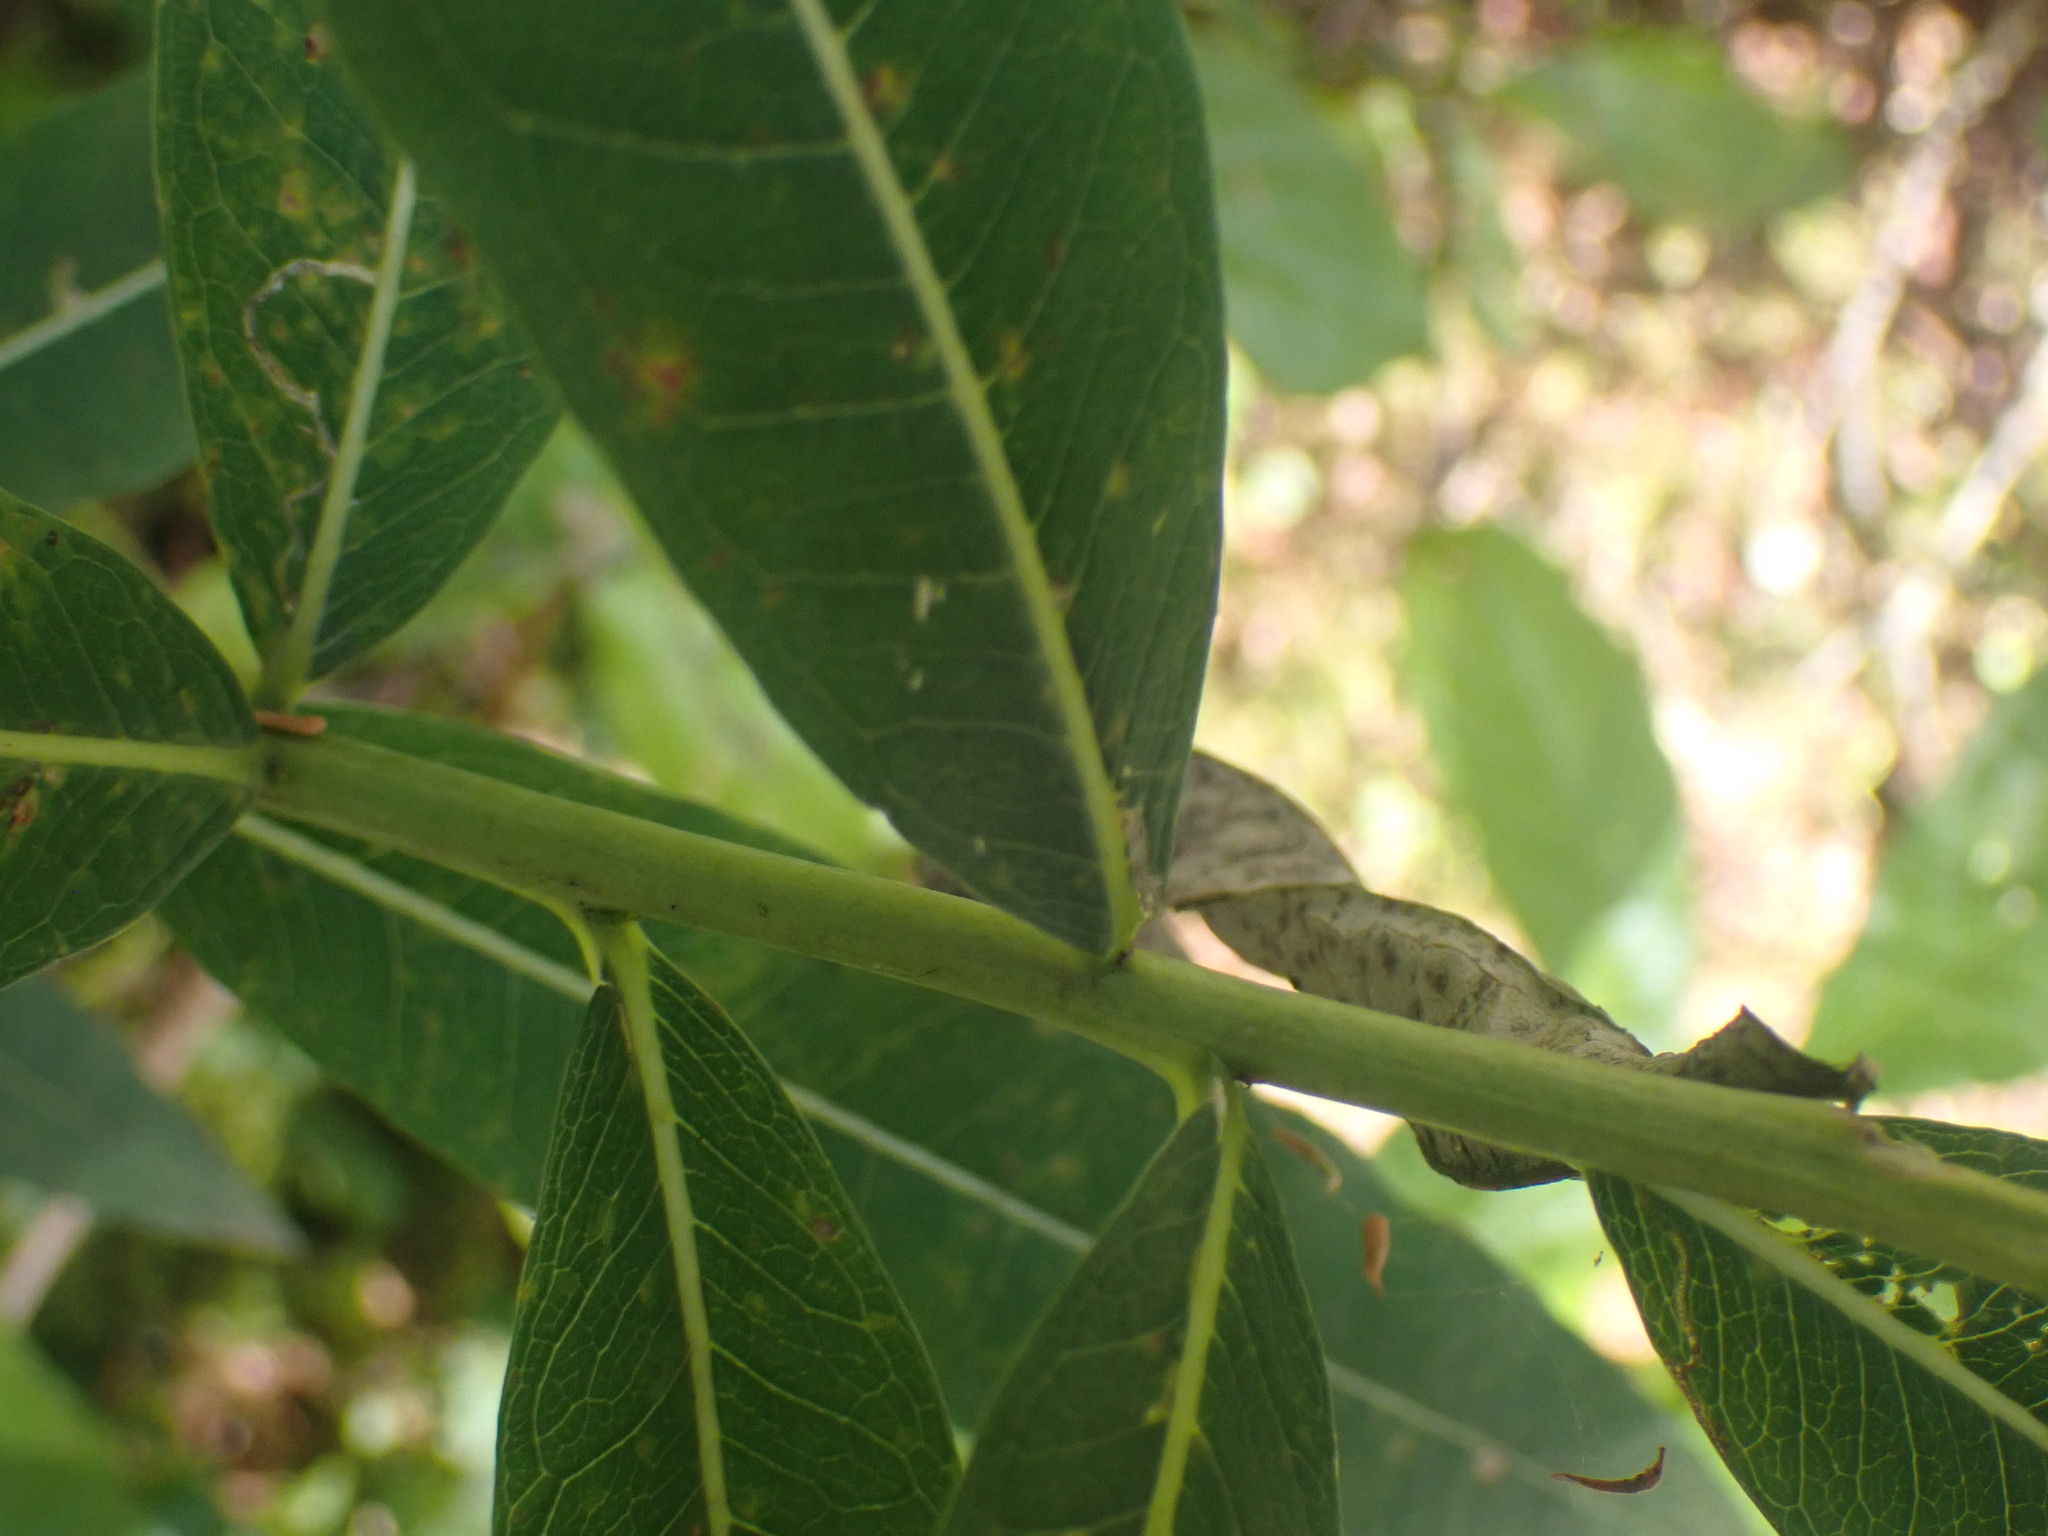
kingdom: Plantae
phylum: Tracheophyta
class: Magnoliopsida
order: Myrtales
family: Onagraceae
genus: Chamaenerion
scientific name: Chamaenerion angustifolium
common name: Fireweed
